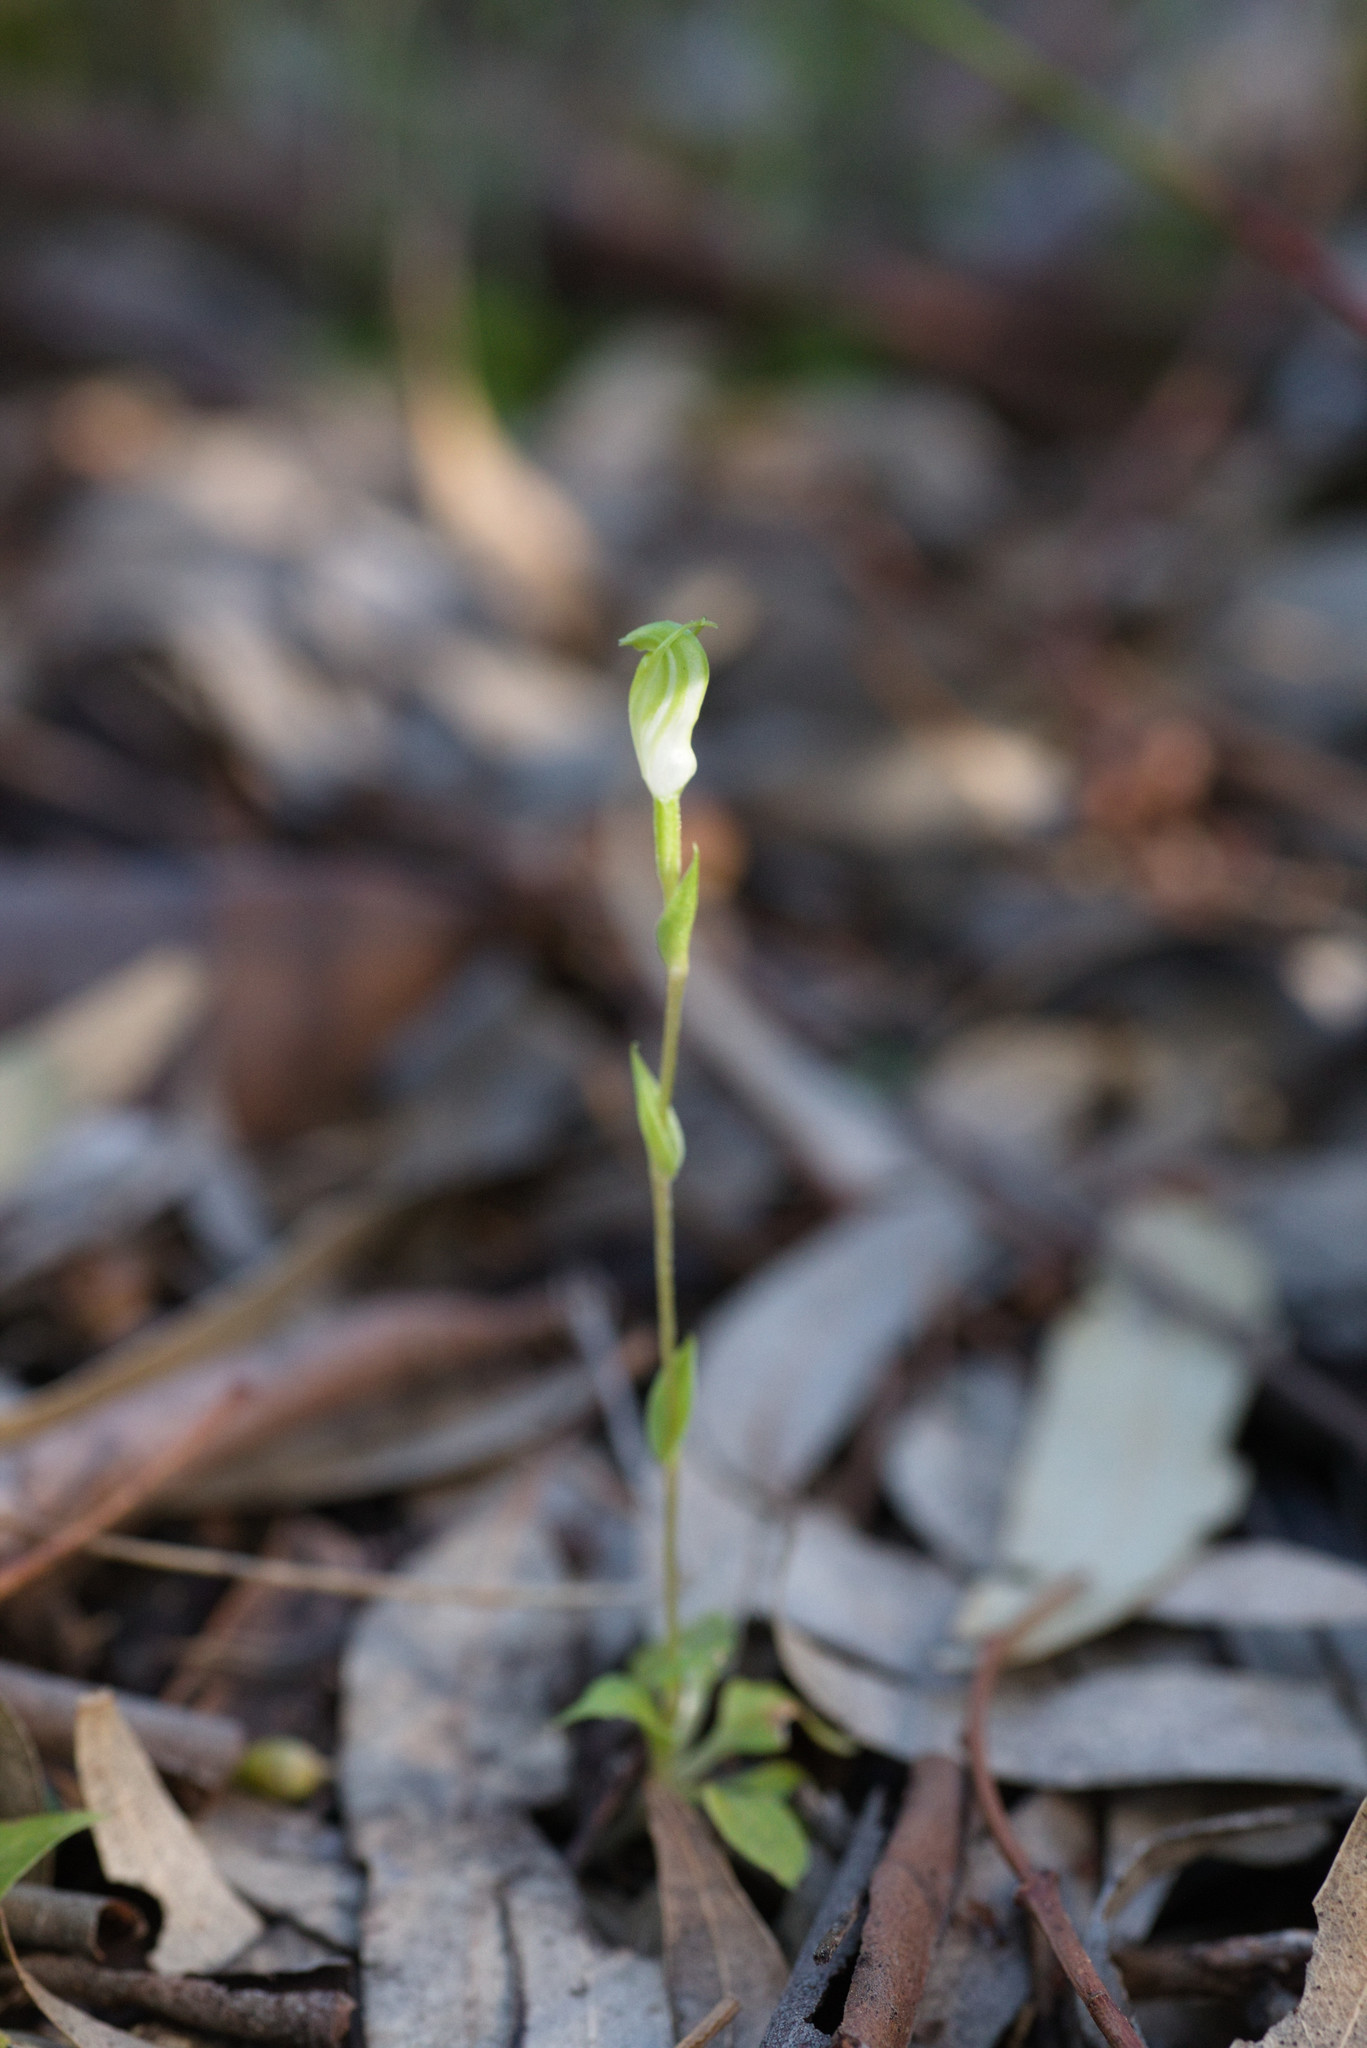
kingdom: Plantae
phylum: Tracheophyta
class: Liliopsida
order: Asparagales
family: Orchidaceae
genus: Pterostylis
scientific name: Pterostylis ectypha
